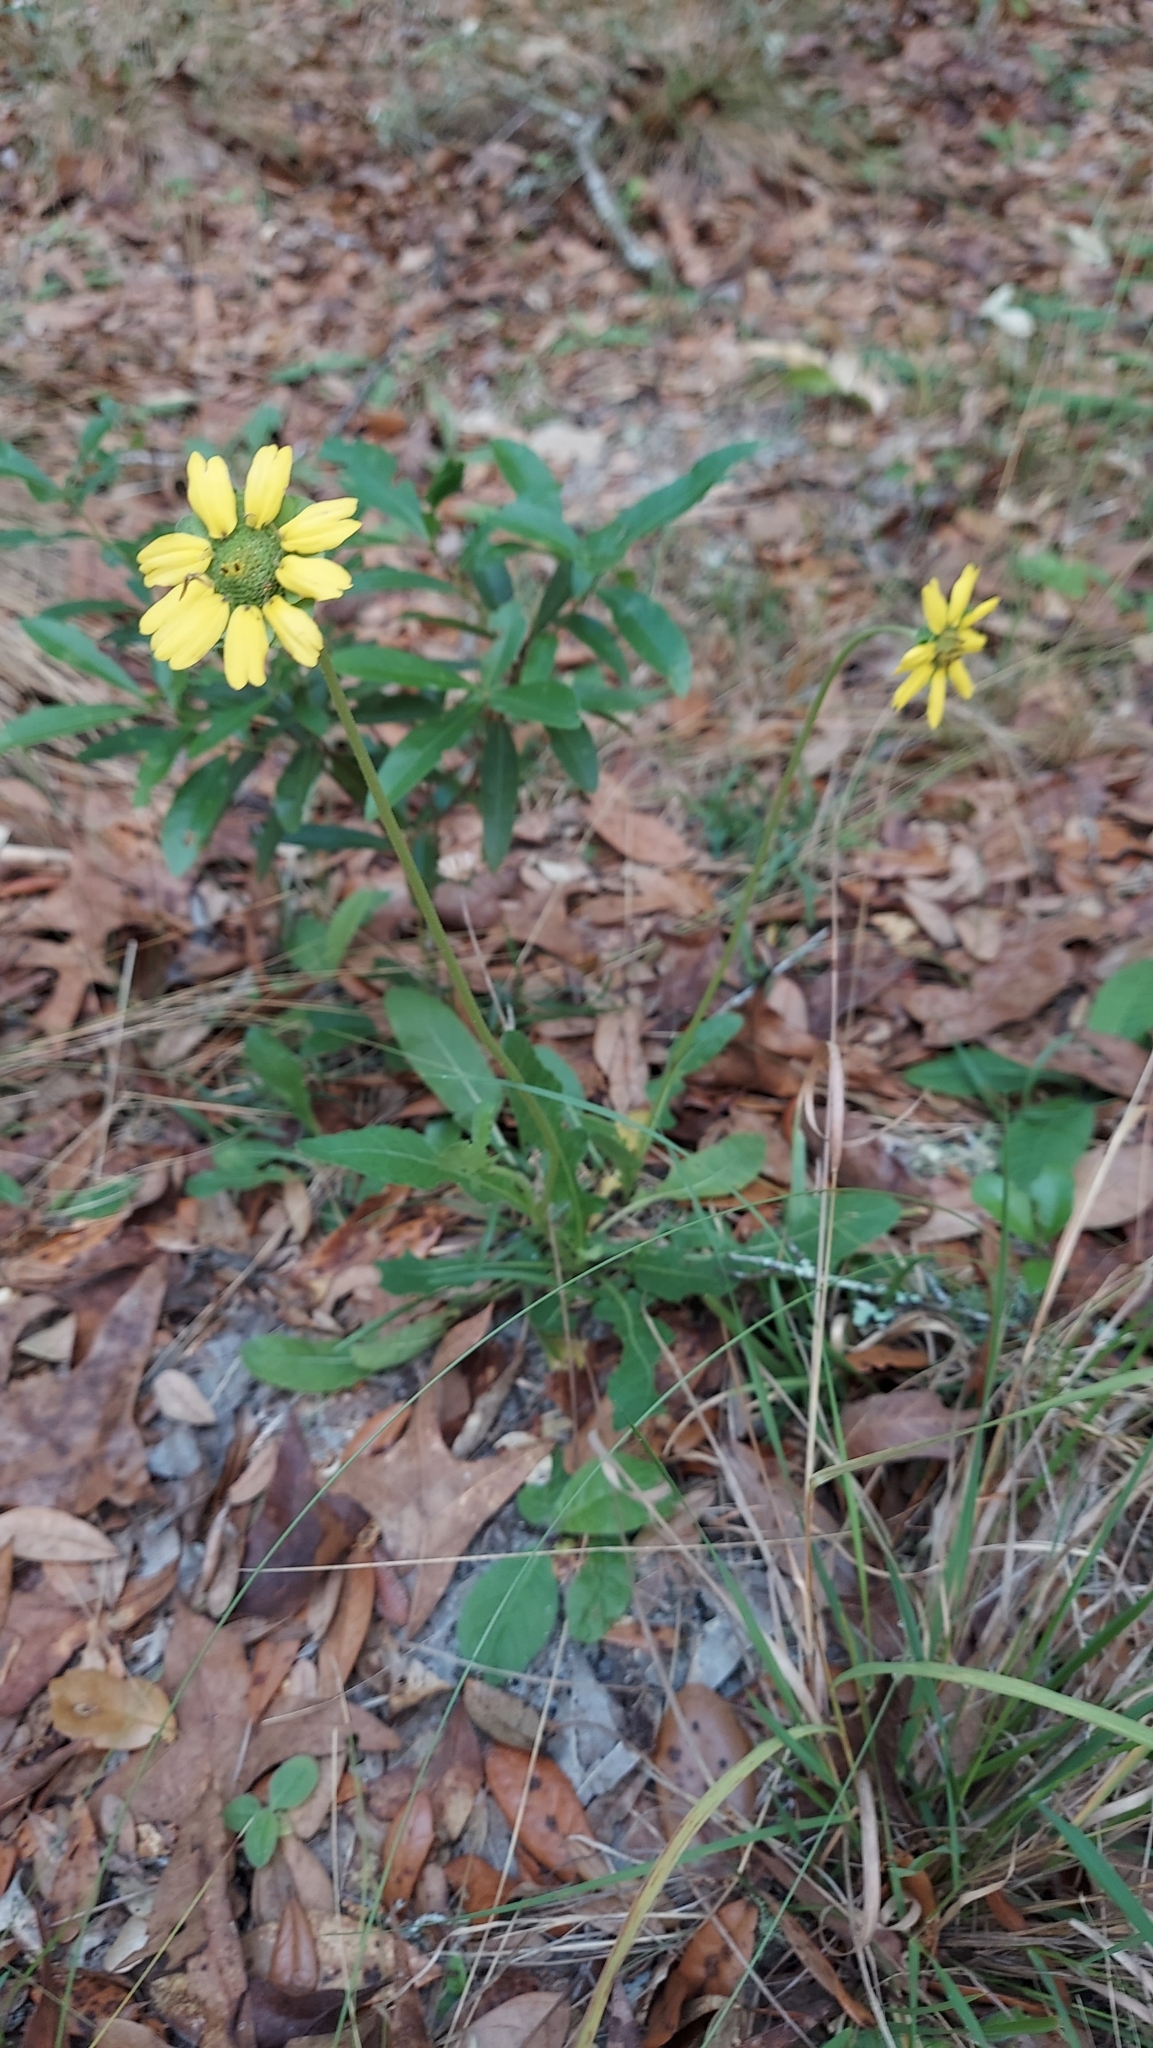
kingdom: Plantae
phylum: Tracheophyta
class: Magnoliopsida
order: Asterales
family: Asteraceae
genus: Berlandiera
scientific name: Berlandiera subacaulis
